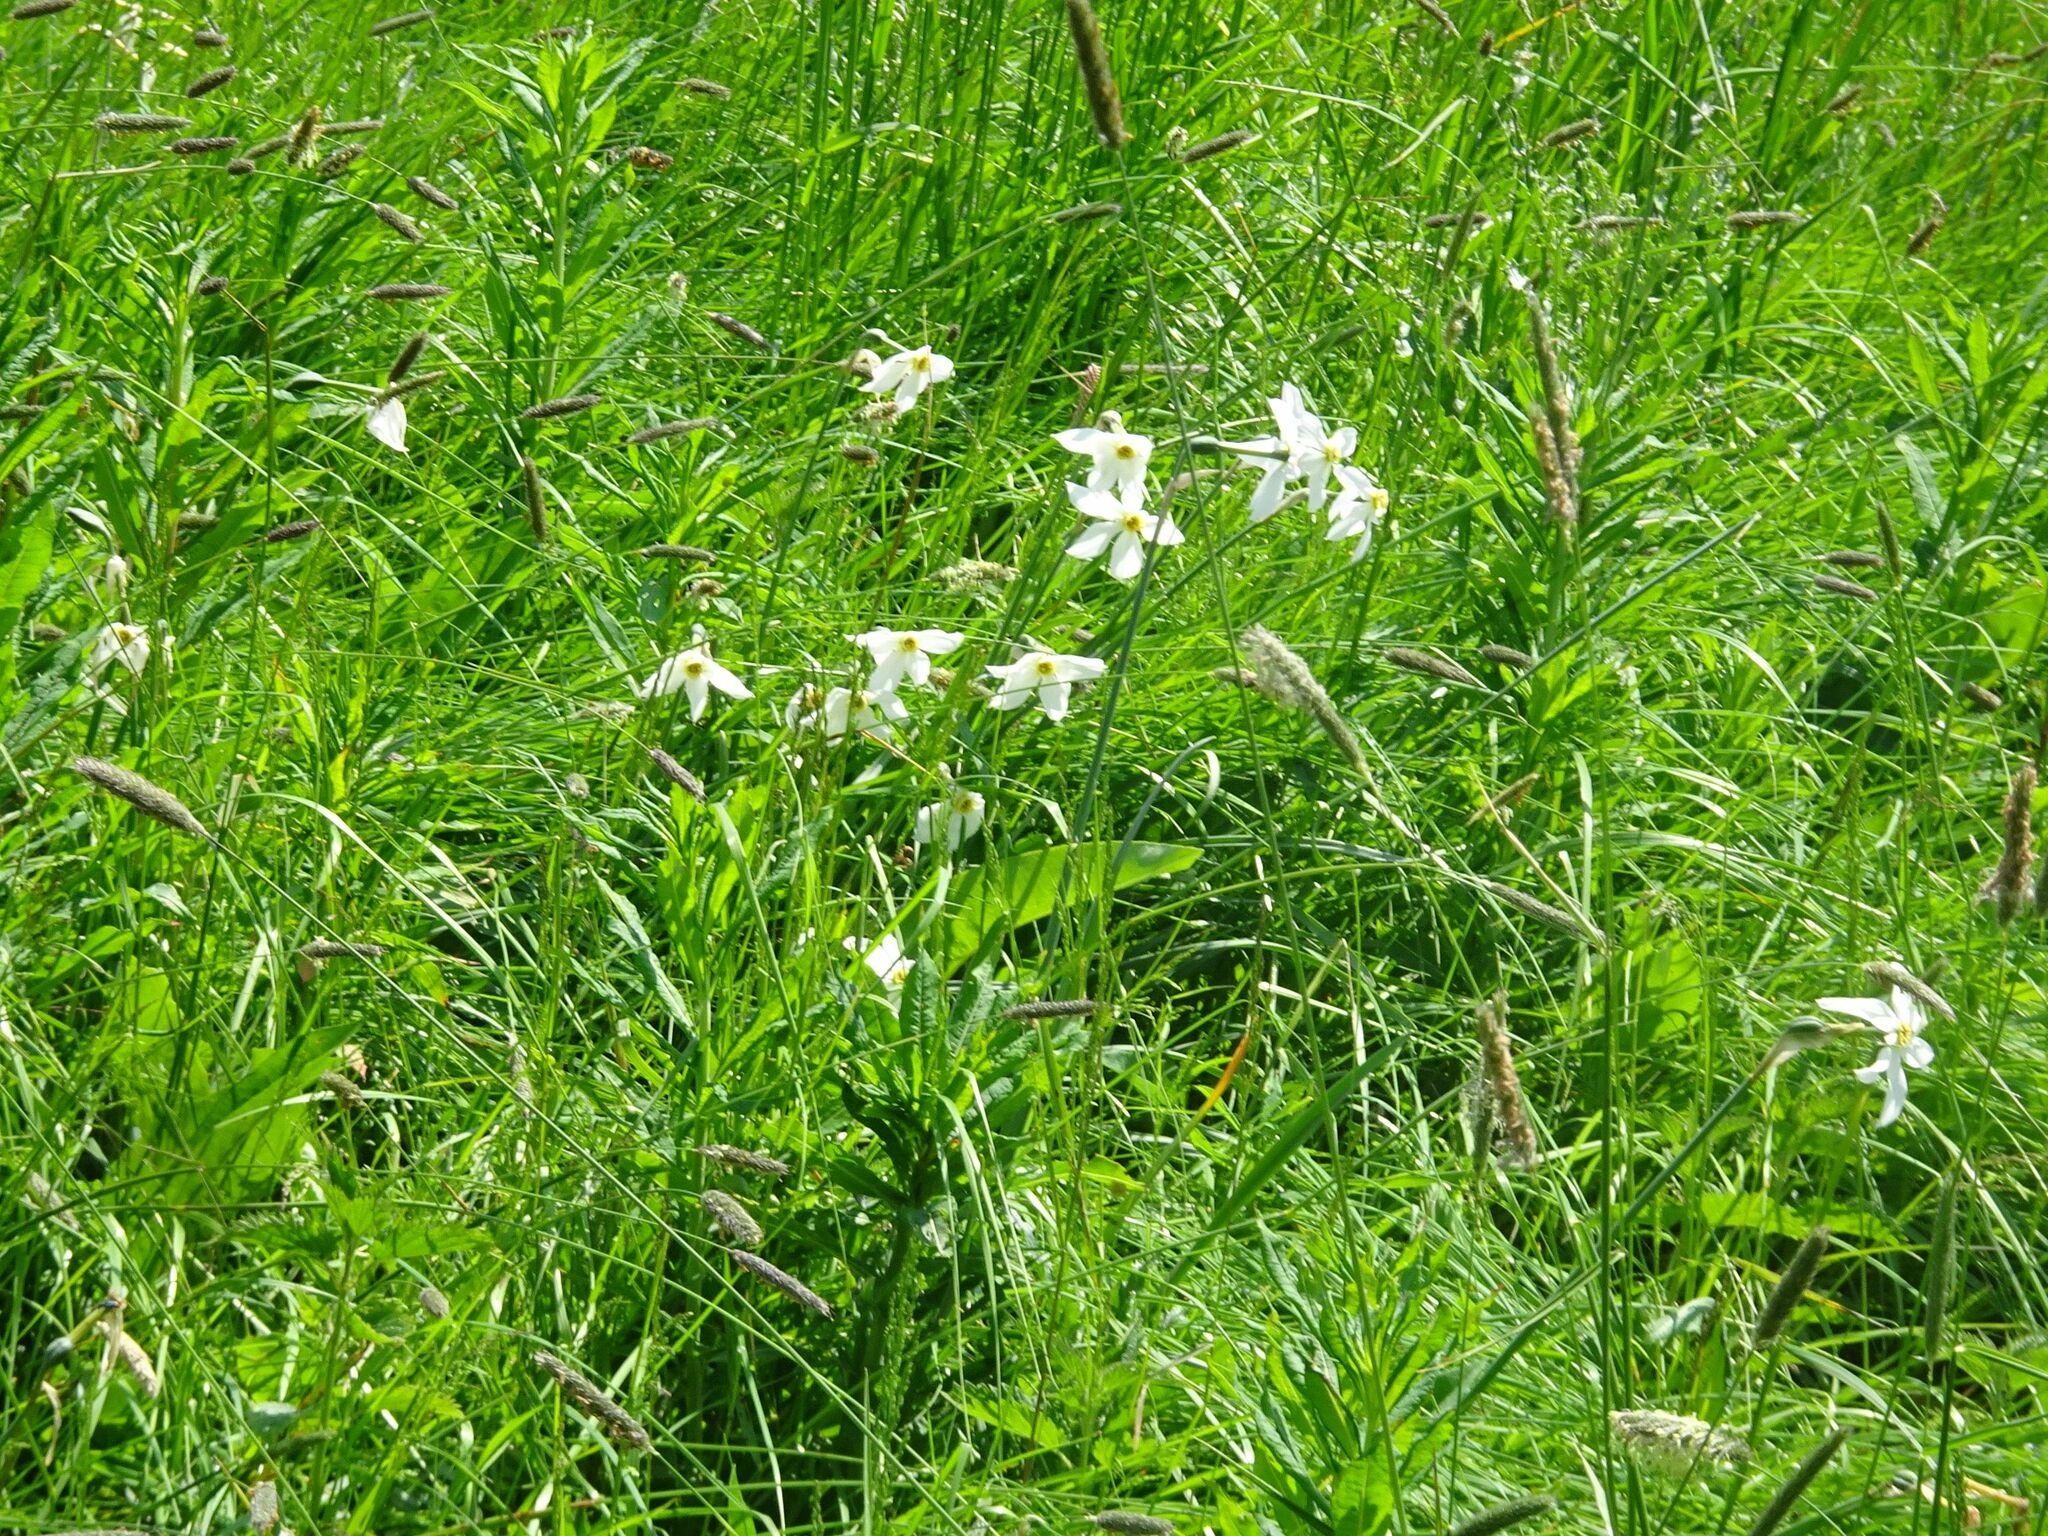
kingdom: Plantae
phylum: Tracheophyta
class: Liliopsida
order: Asparagales
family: Amaryllidaceae
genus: Narcissus
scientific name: Narcissus poeticus
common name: Pheasant's-eye daffodil
